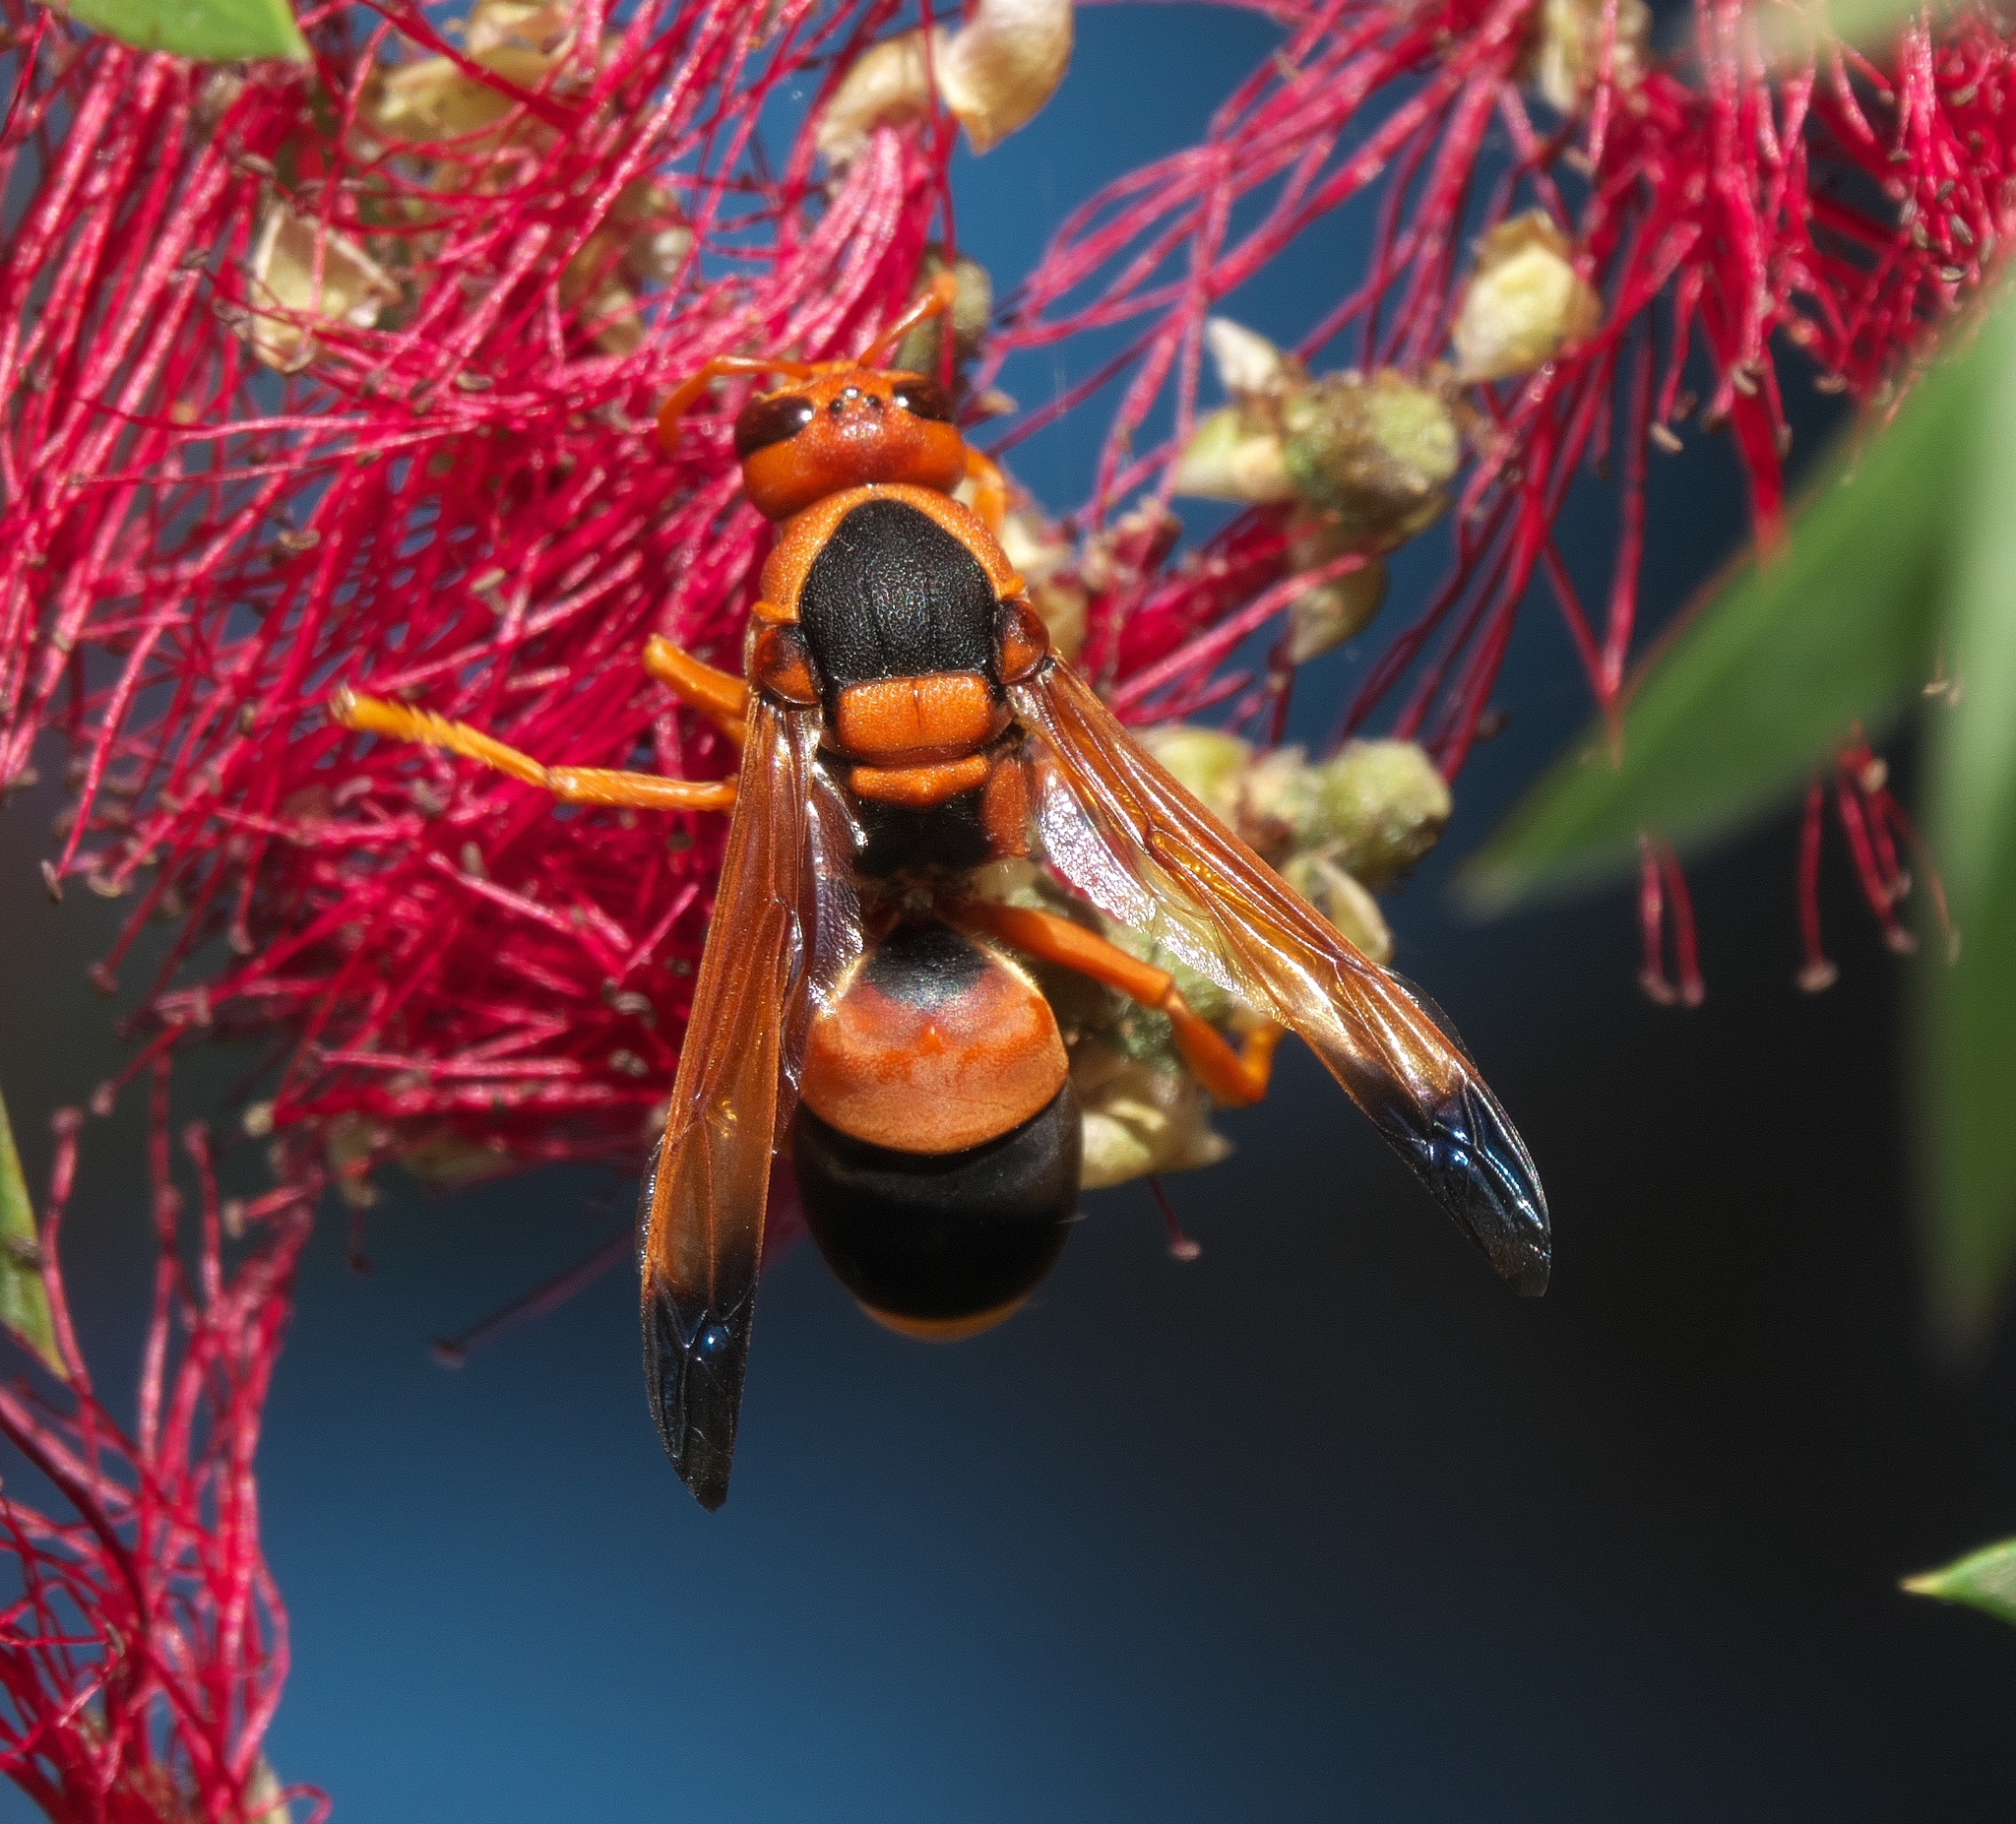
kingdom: Animalia
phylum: Arthropoda
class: Insecta
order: Hymenoptera
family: Eumenidae
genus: Abispa
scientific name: Abispa ephippium
